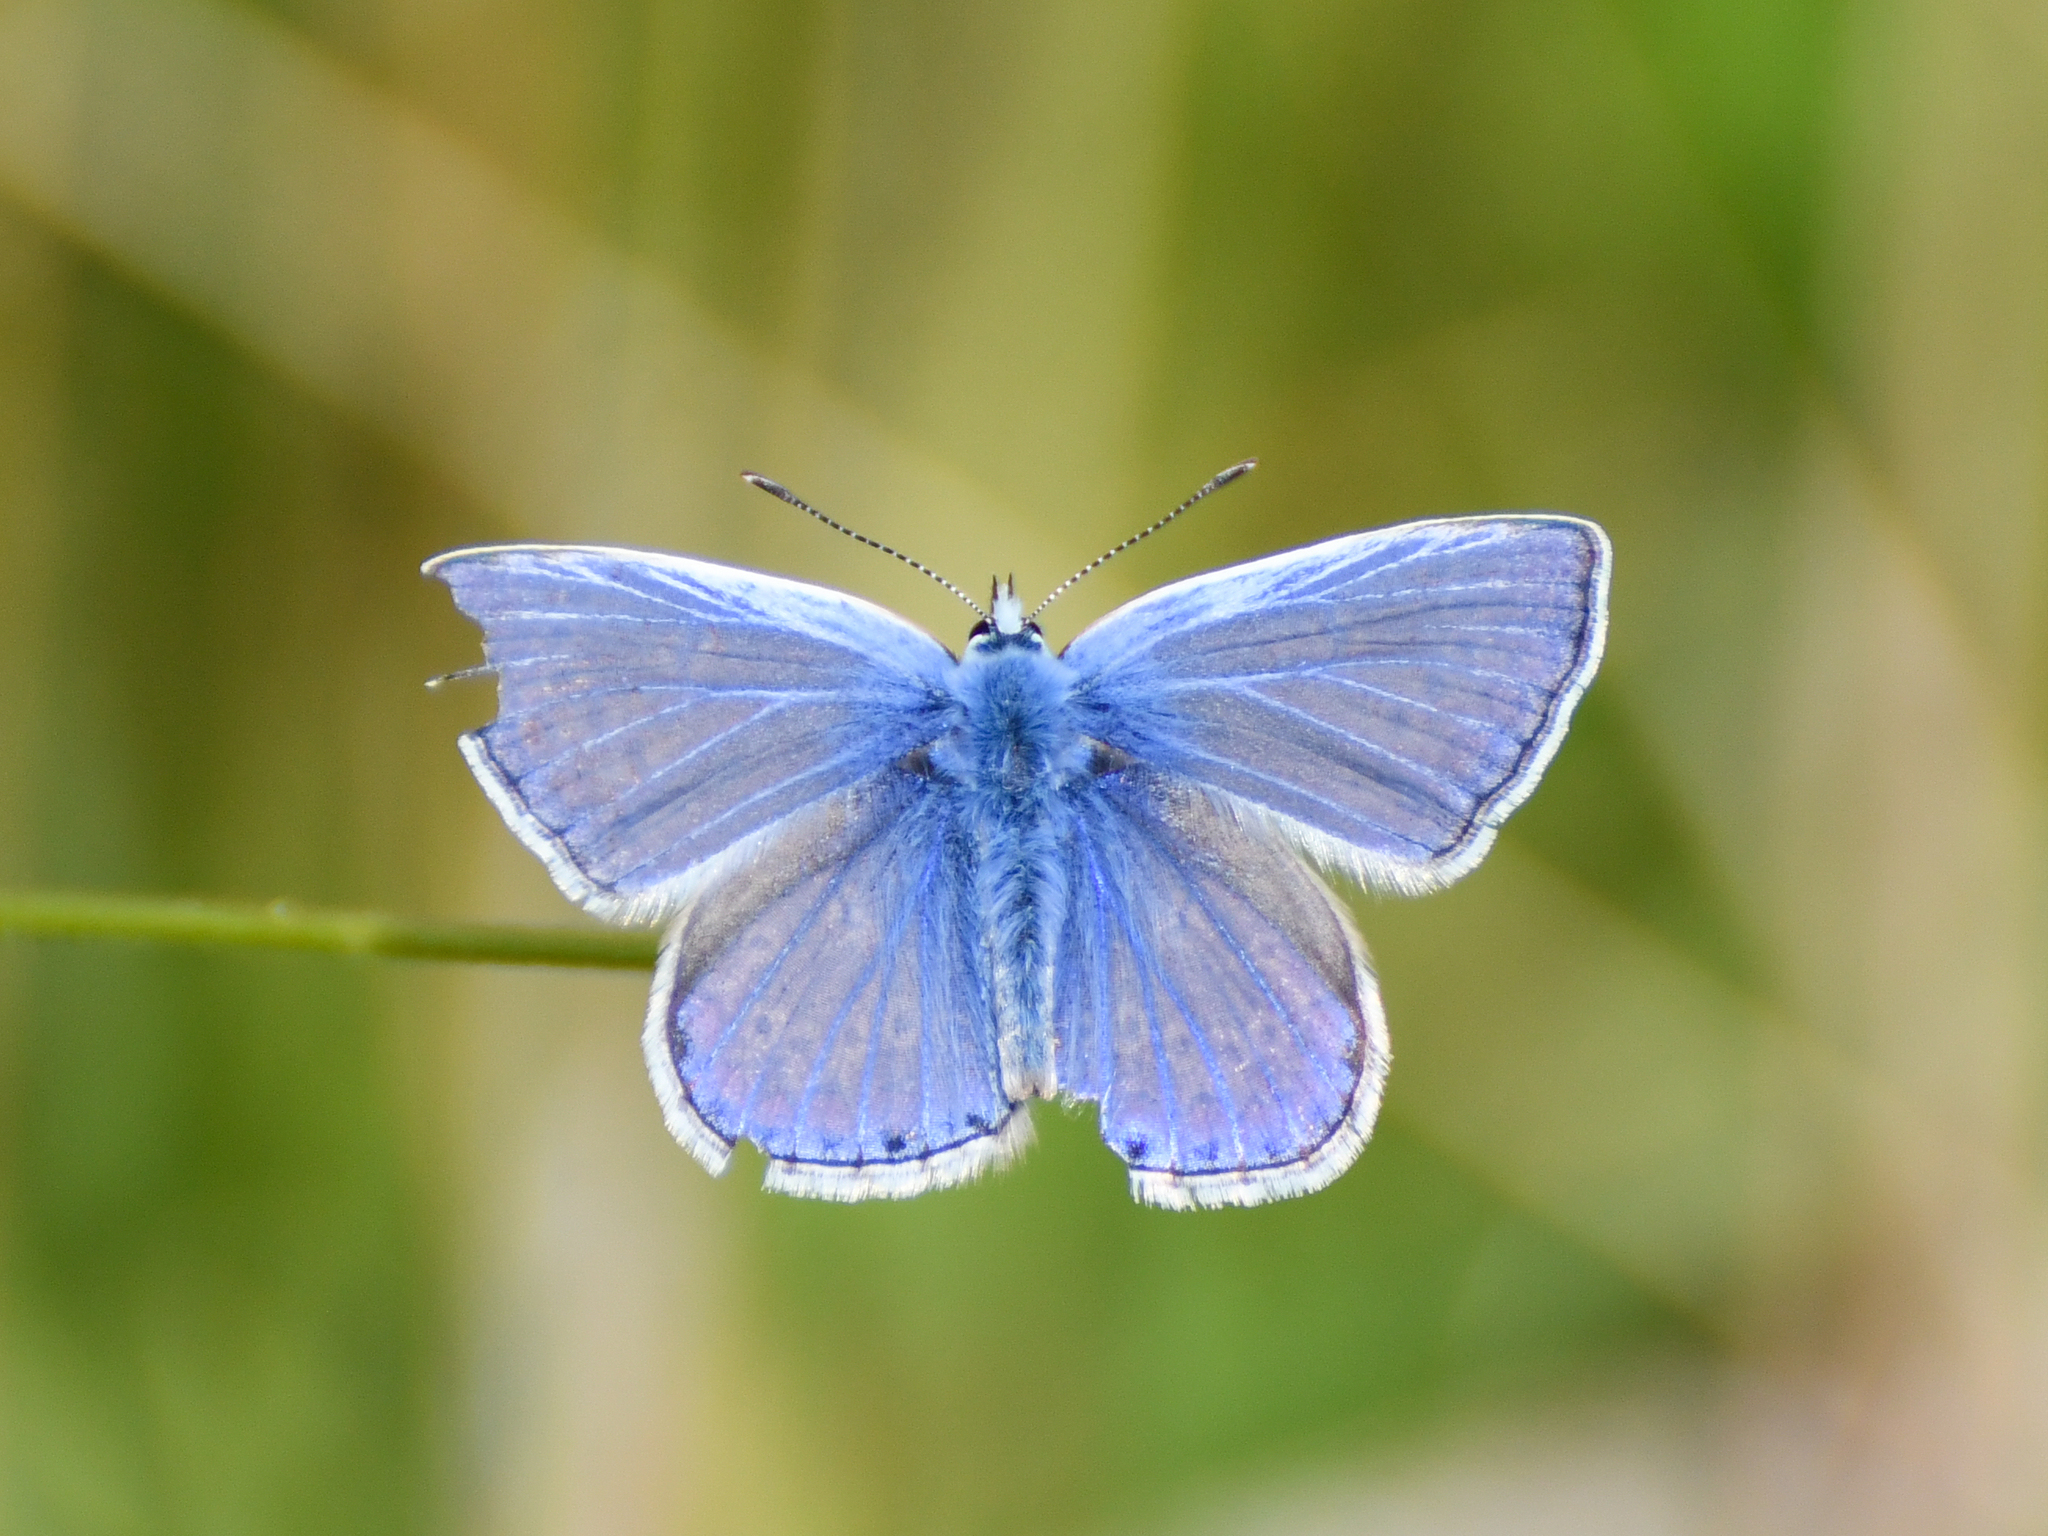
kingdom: Animalia
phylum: Arthropoda
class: Insecta
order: Lepidoptera
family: Lycaenidae
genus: Polyommatus
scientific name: Polyommatus icarus
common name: Common blue
